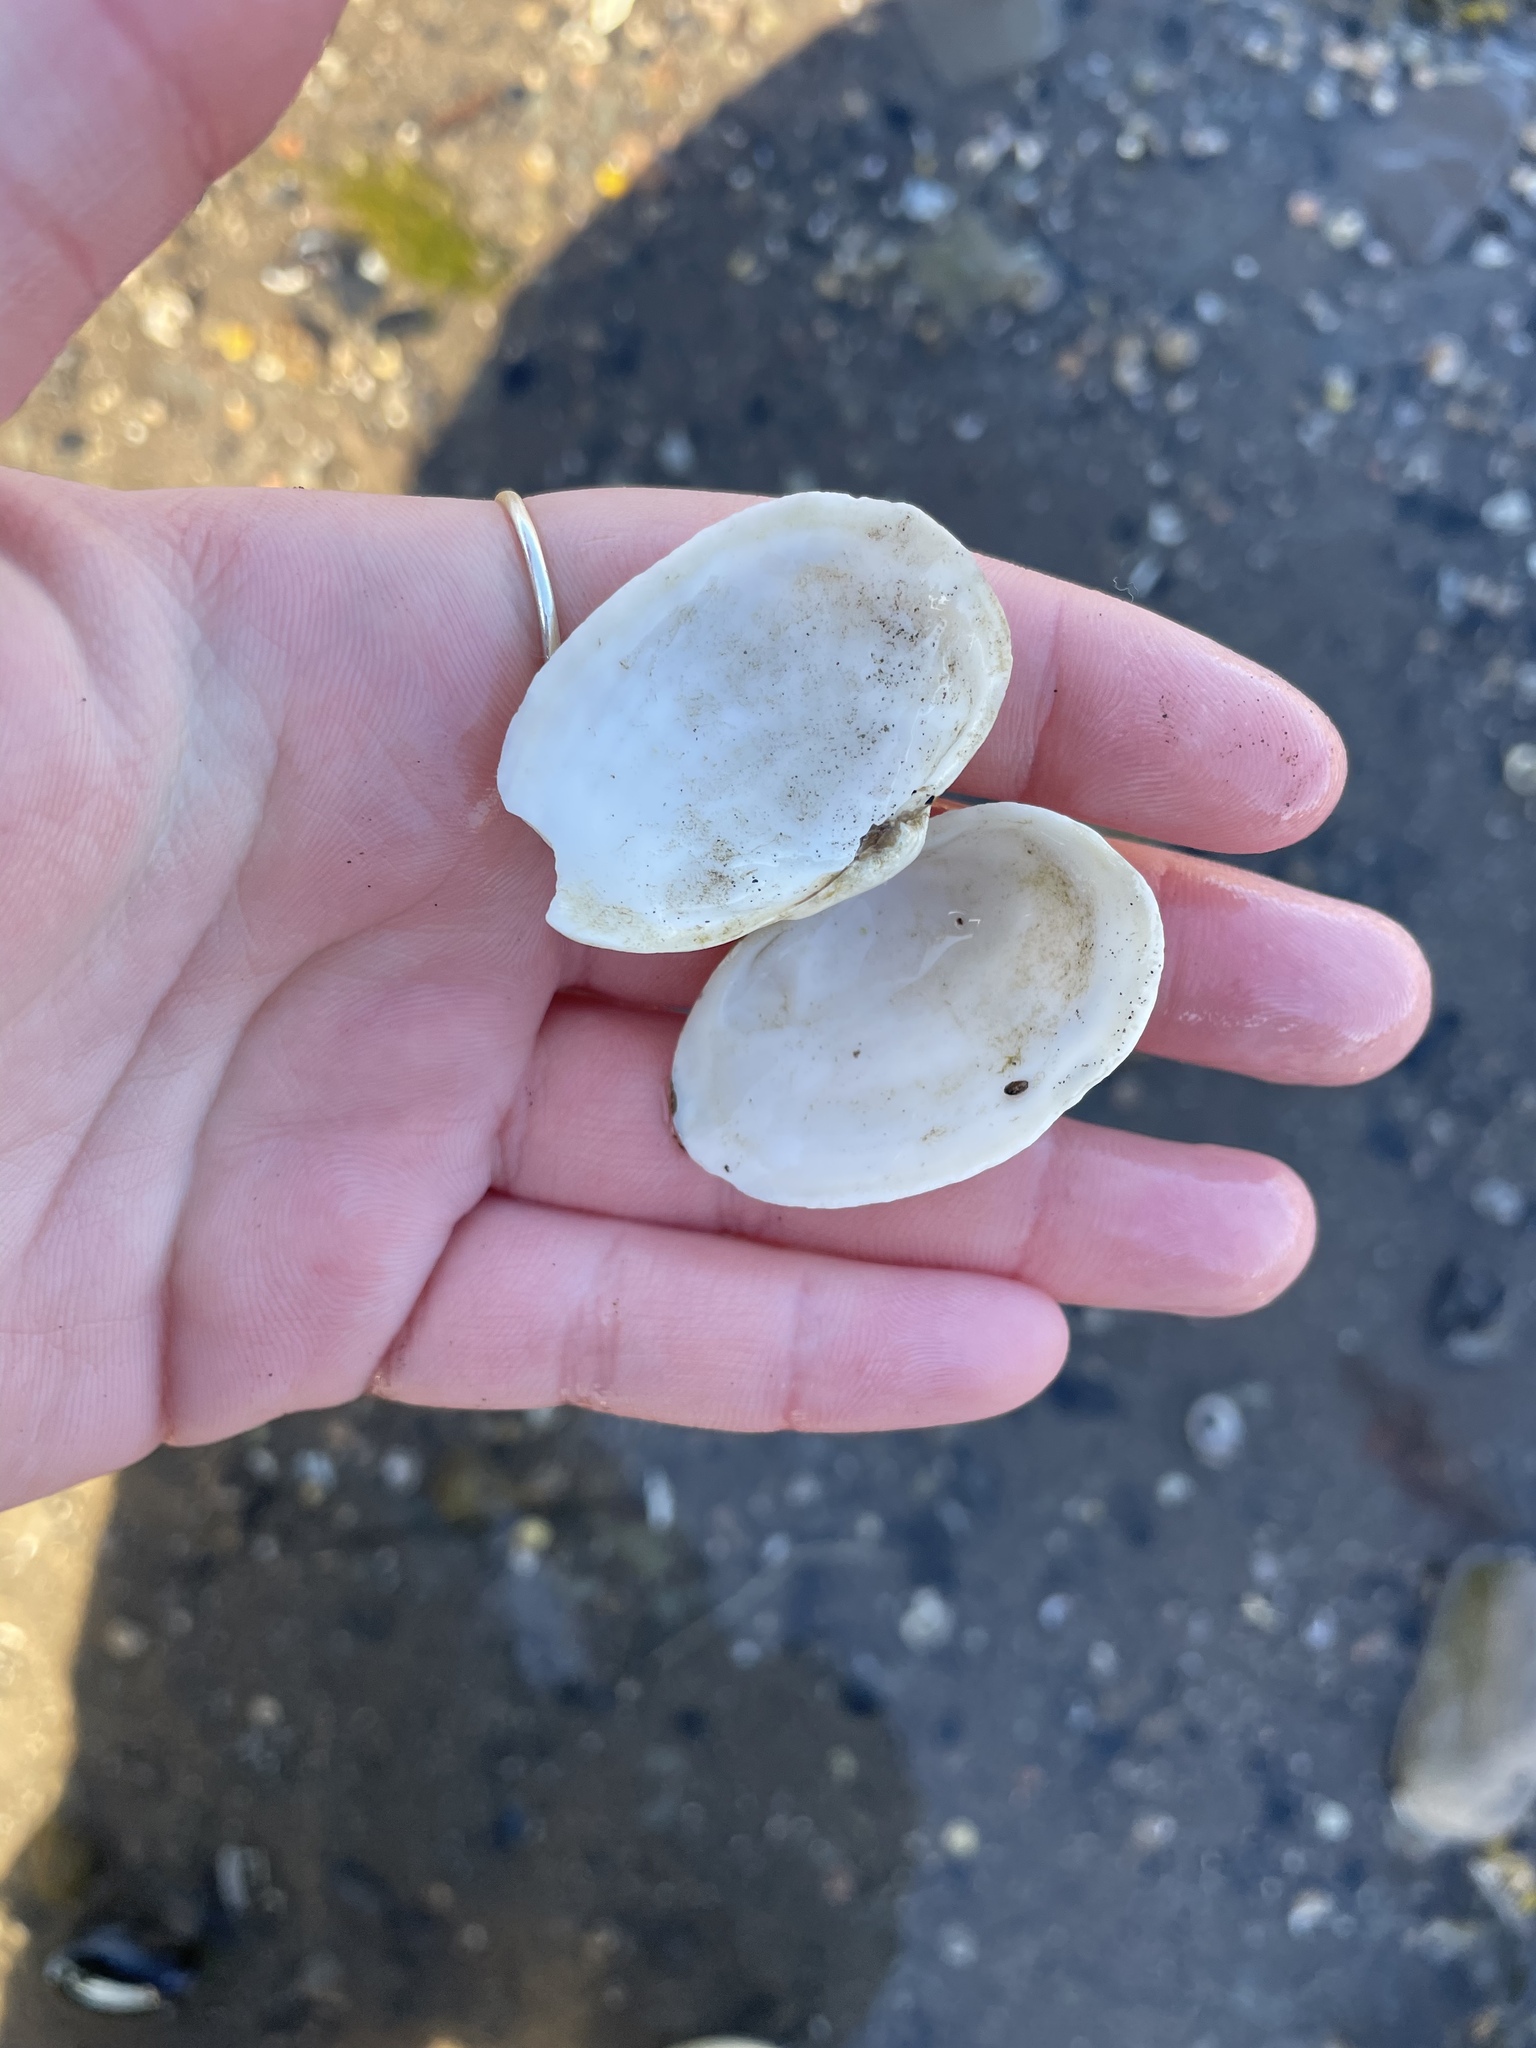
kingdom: Animalia
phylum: Mollusca
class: Bivalvia
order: Myida
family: Myidae
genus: Mya
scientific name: Mya arenaria
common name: Soft-shelled clam
